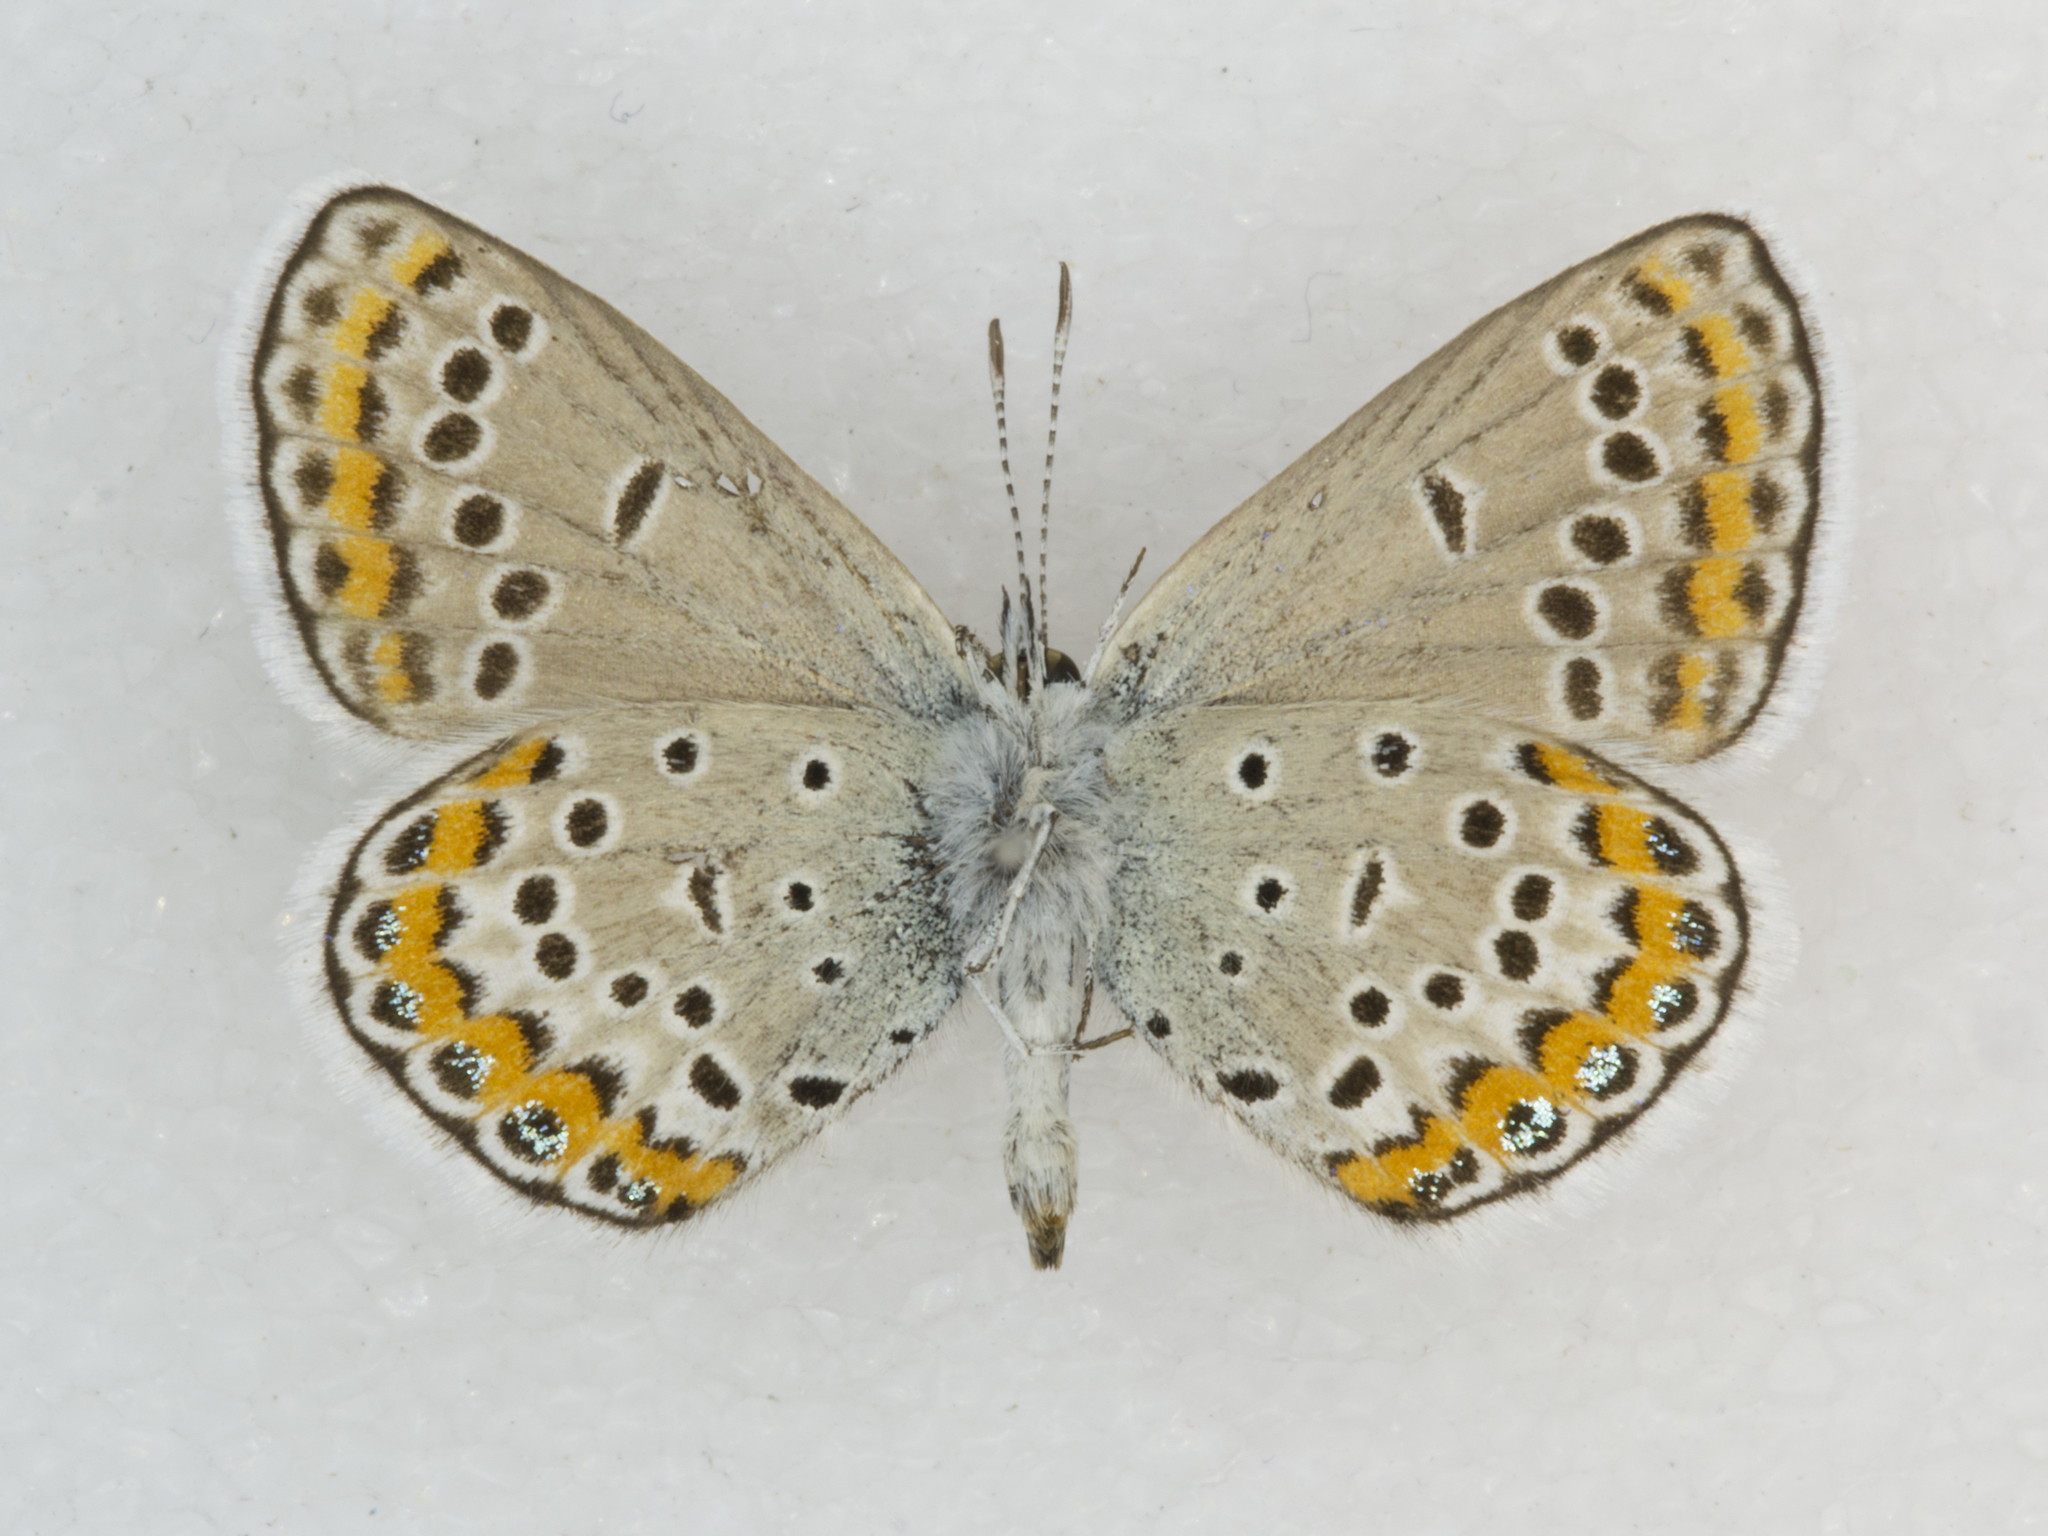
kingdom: Animalia
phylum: Arthropoda
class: Insecta
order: Lepidoptera
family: Lycaenidae
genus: Lycaeides
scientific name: Lycaeides melissa
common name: Melissa blue
